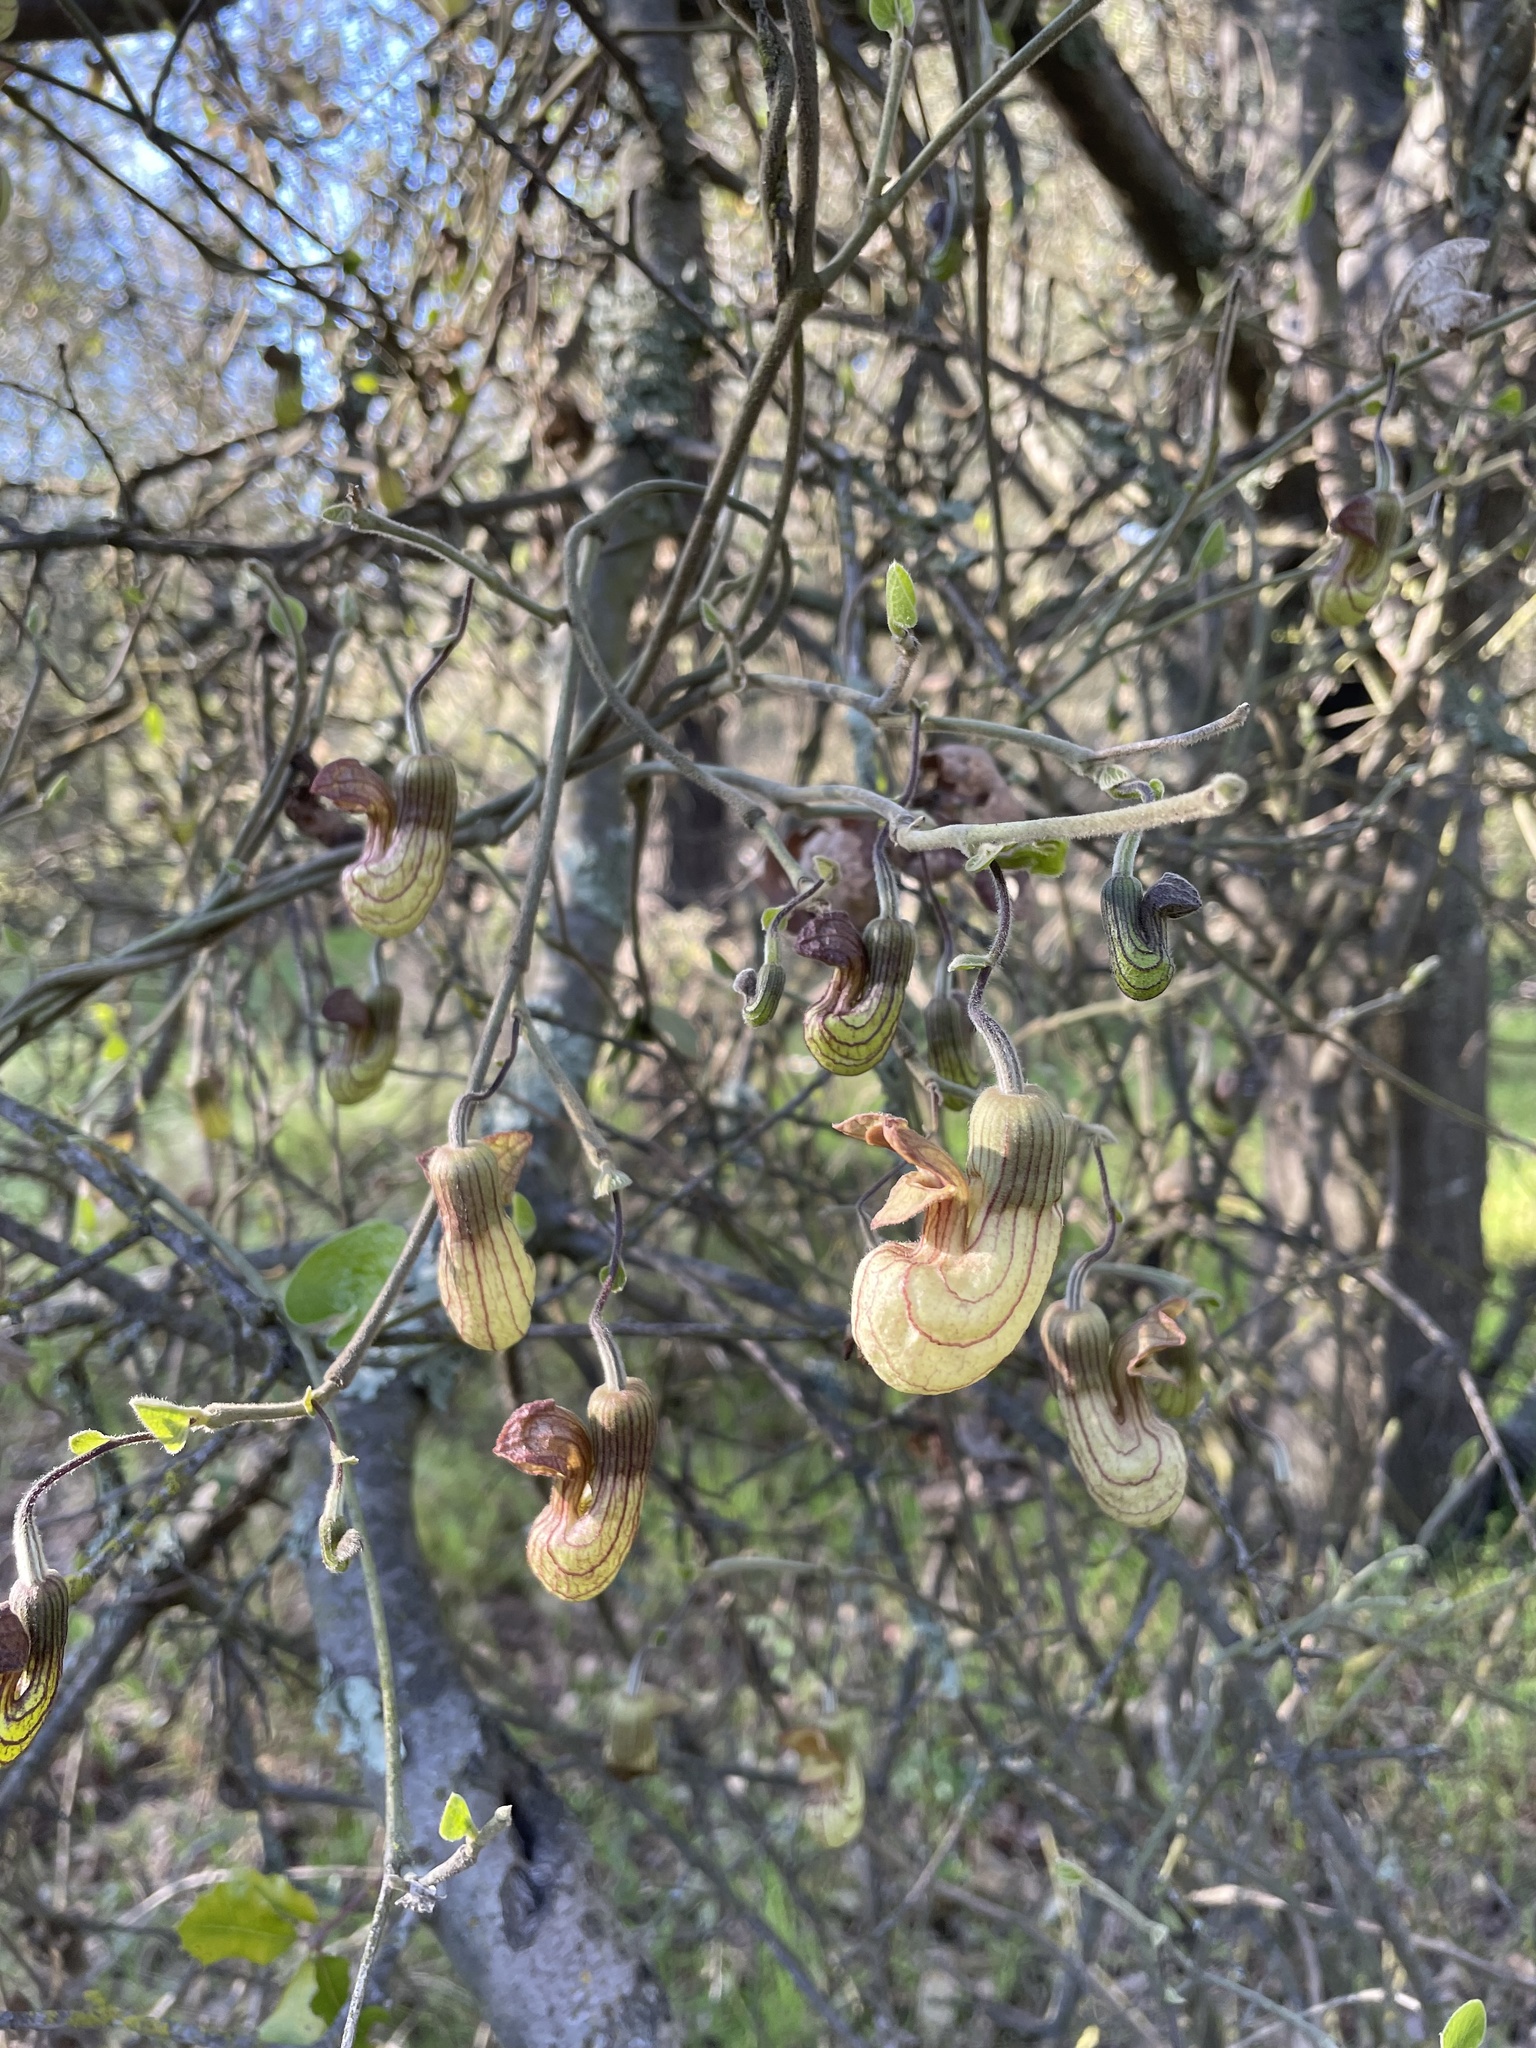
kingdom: Plantae
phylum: Tracheophyta
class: Magnoliopsida
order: Piperales
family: Aristolochiaceae
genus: Isotrema
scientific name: Isotrema californicum
